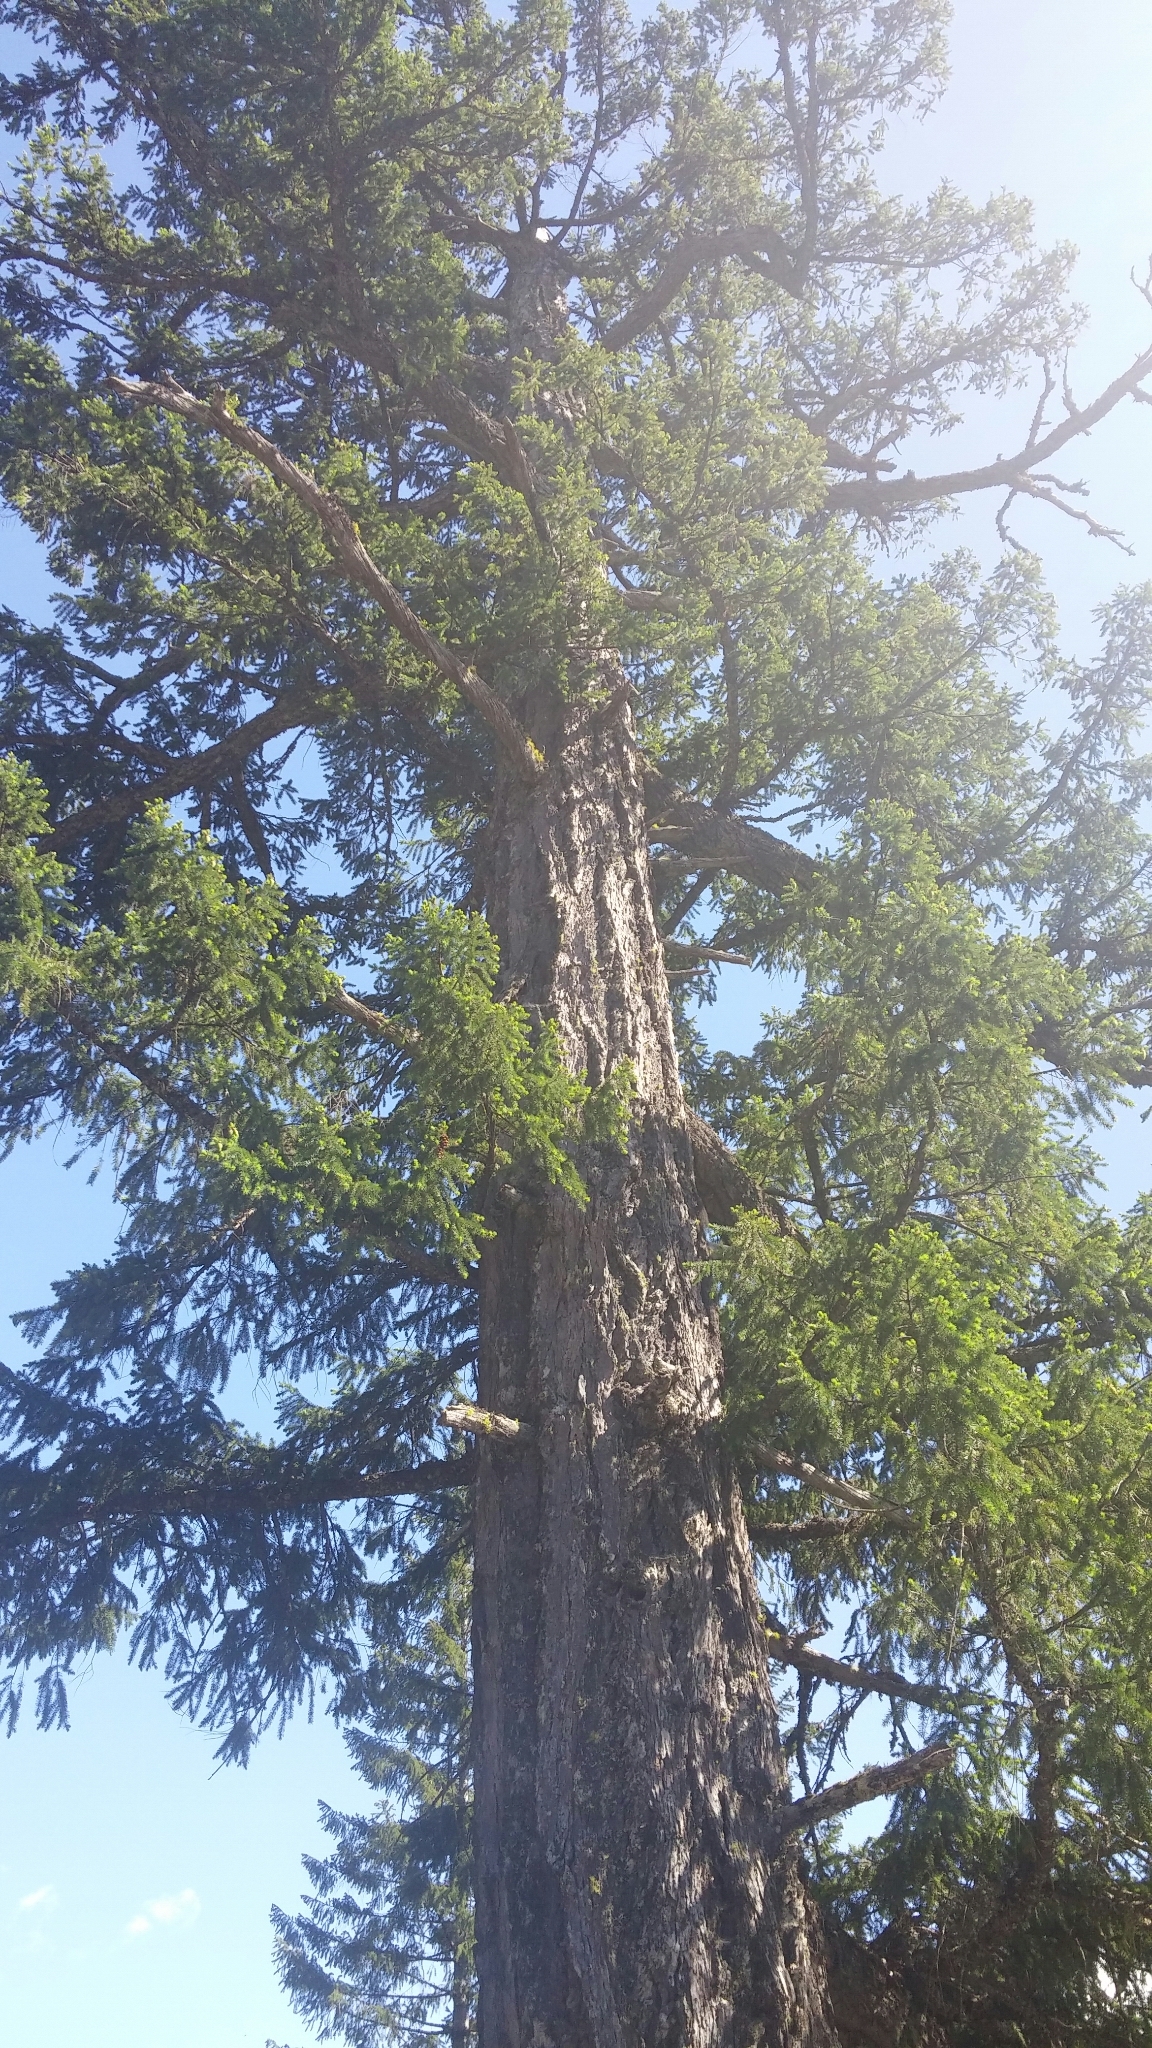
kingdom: Plantae
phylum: Tracheophyta
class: Pinopsida
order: Pinales
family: Pinaceae
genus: Pseudotsuga
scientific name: Pseudotsuga menziesii
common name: Douglas fir
